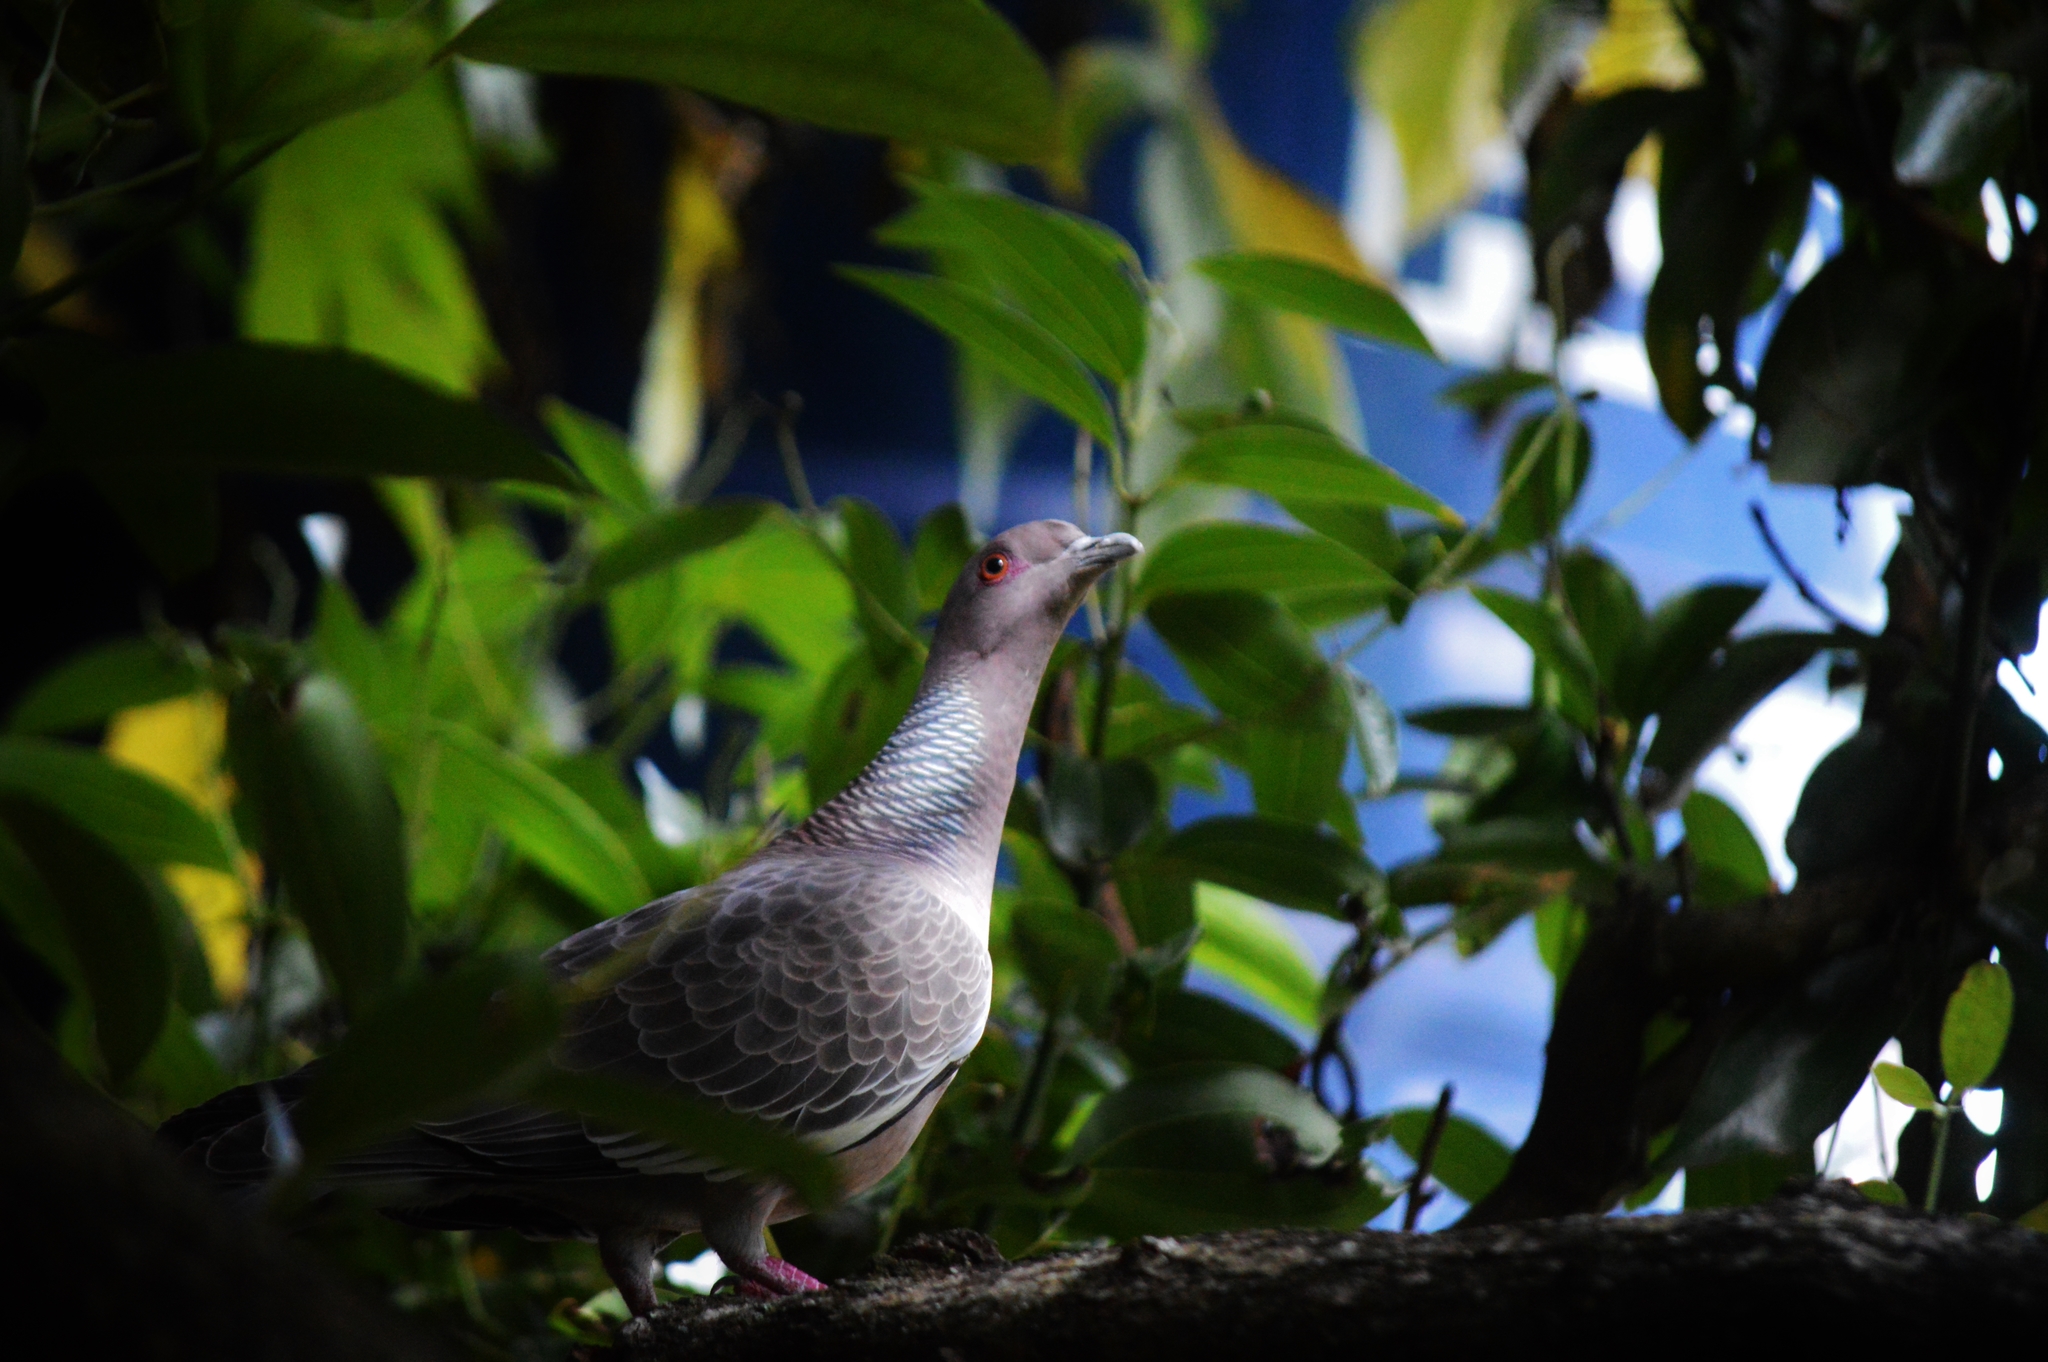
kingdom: Animalia
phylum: Chordata
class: Aves
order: Columbiformes
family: Columbidae
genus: Patagioenas
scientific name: Patagioenas picazuro
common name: Picazuro pigeon
